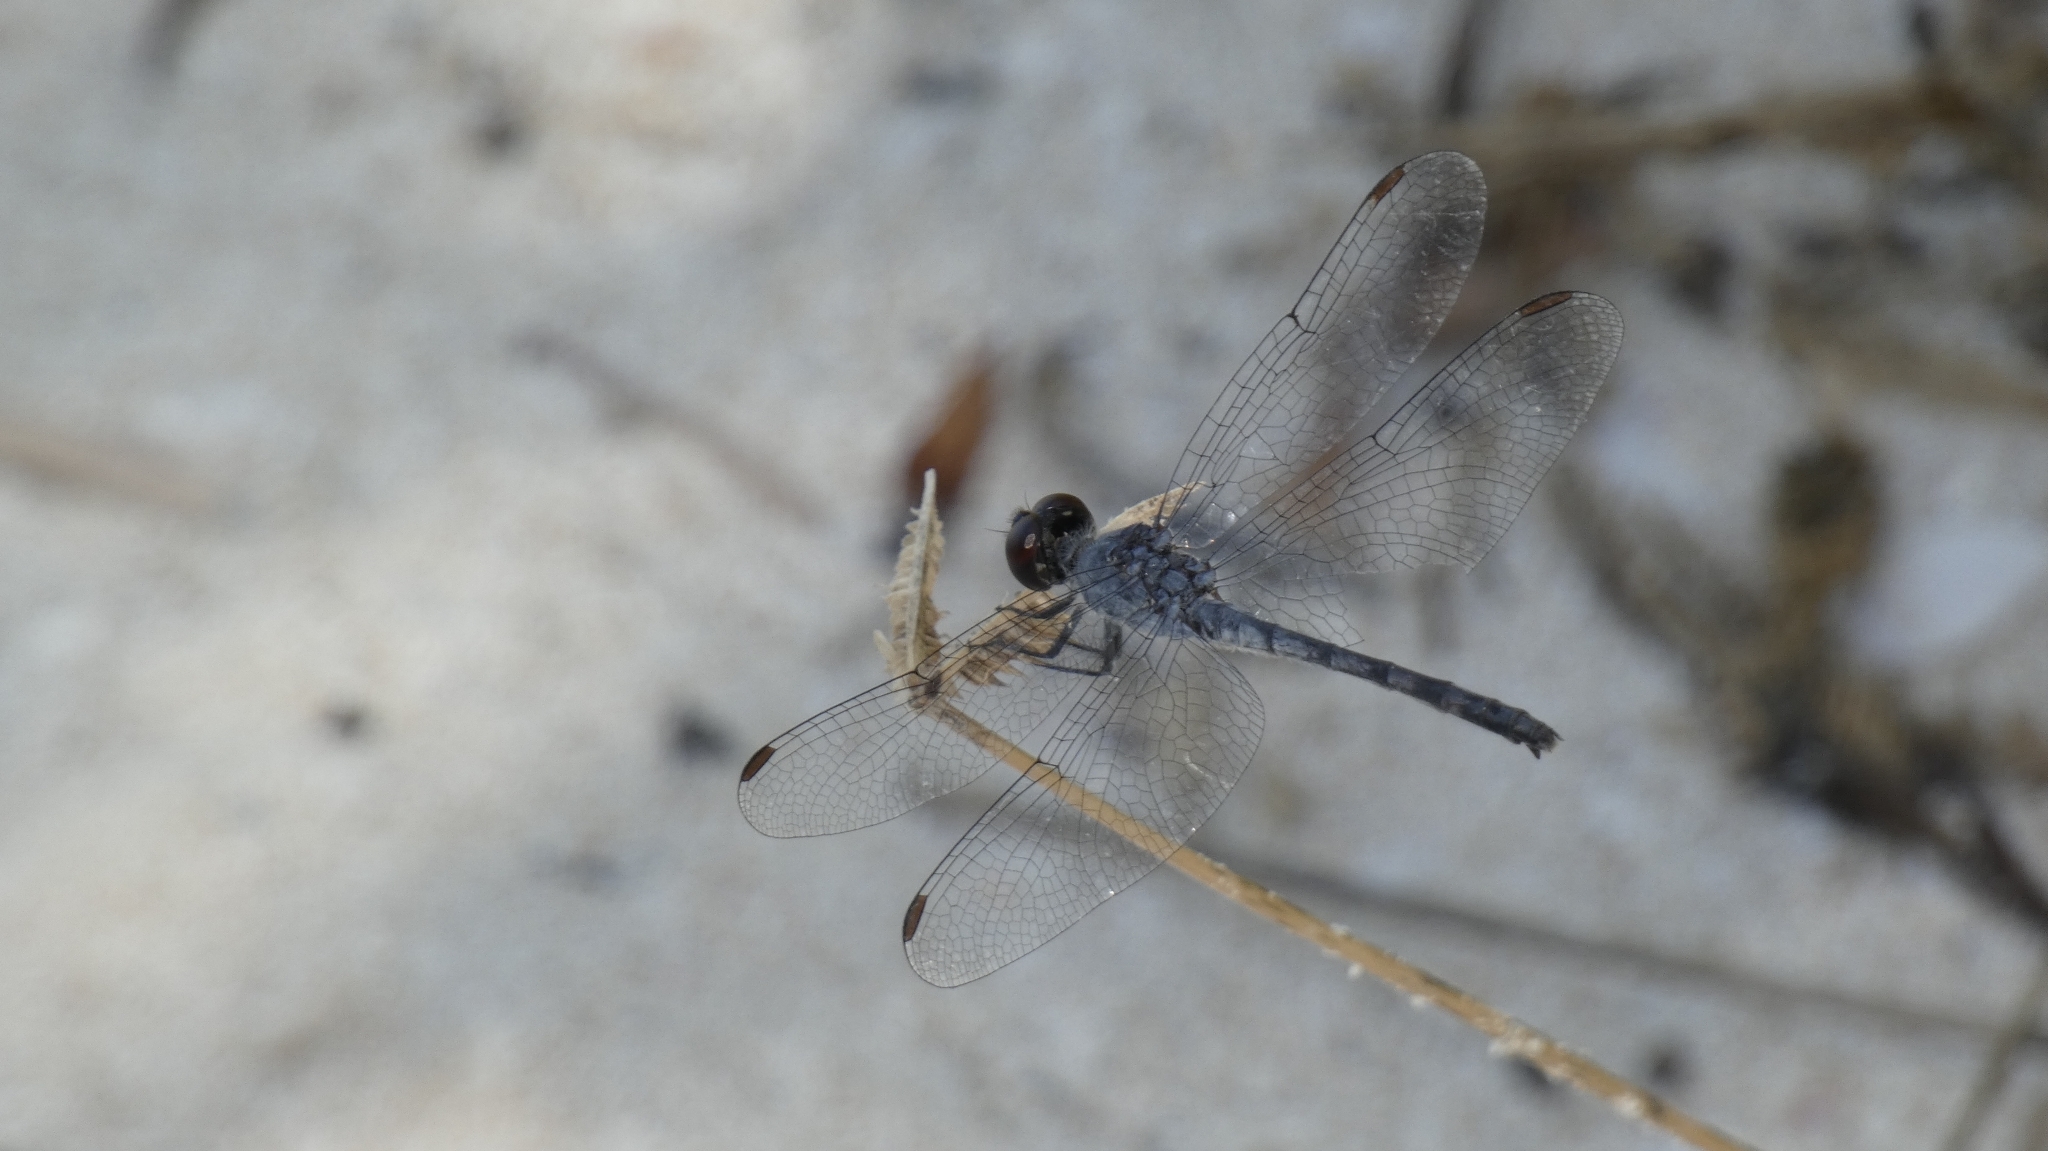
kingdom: Animalia
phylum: Arthropoda
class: Insecta
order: Odonata
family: Libellulidae
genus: Erythrodiplax
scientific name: Erythrodiplax berenice
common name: Seaside dragonlet
